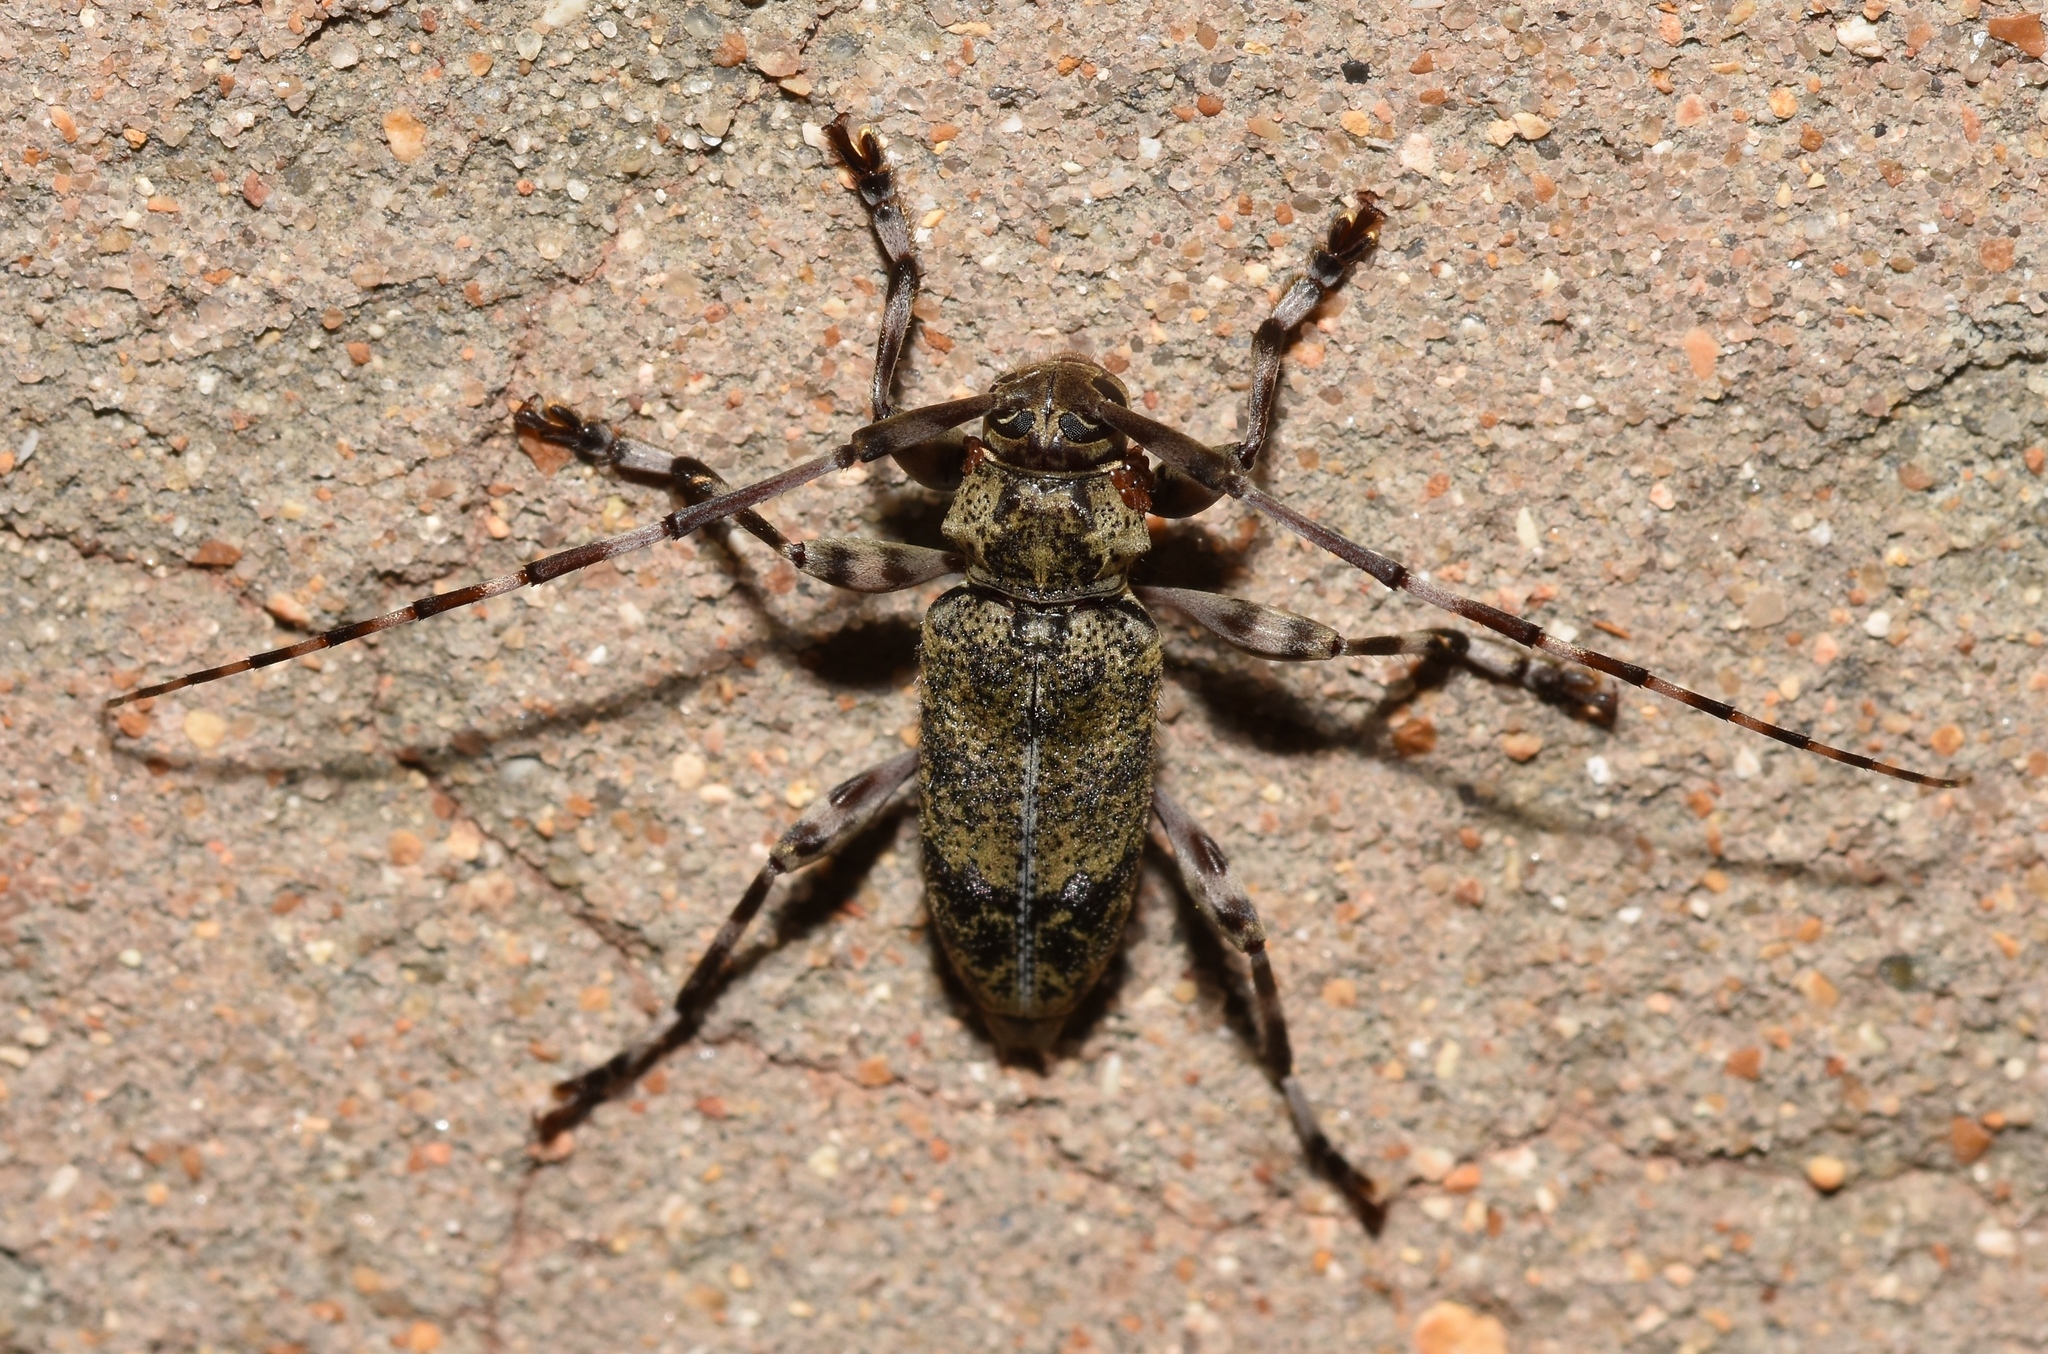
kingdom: Animalia
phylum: Arthropoda
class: Insecta
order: Coleoptera
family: Cerambycidae
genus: Graphisurus
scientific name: Graphisurus fasciatus
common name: Banded graphisurus
